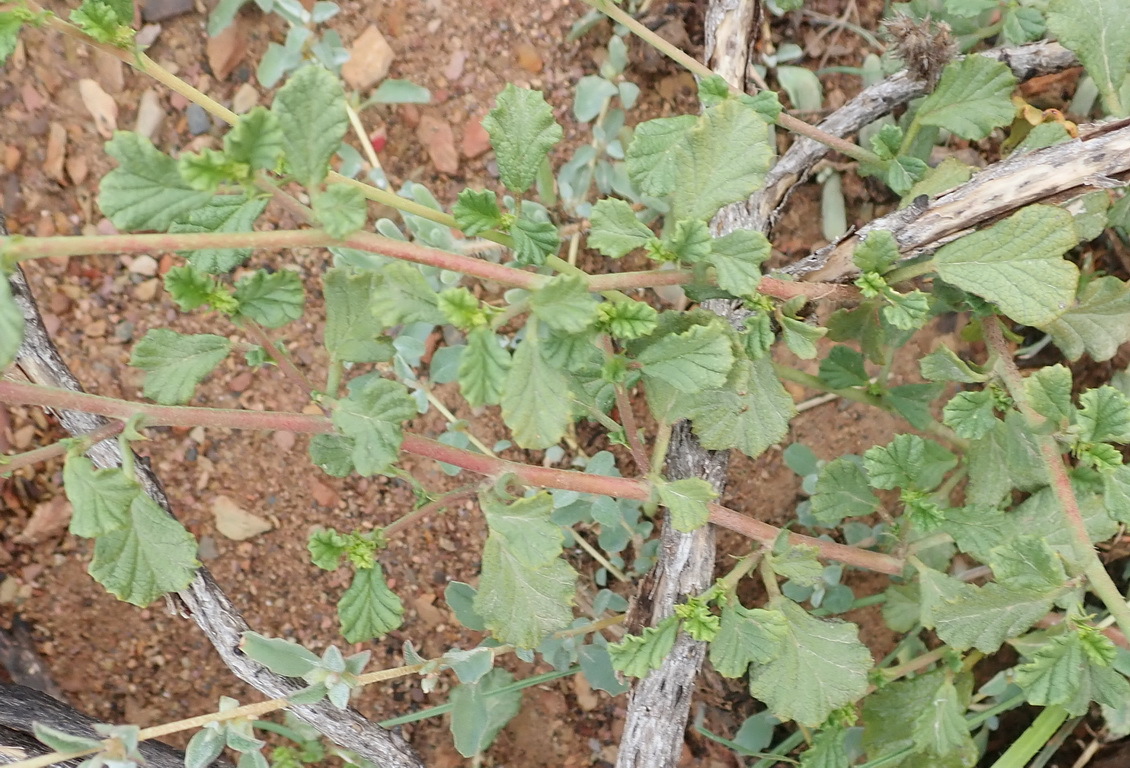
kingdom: Plantae
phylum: Tracheophyta
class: Magnoliopsida
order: Malvales
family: Malvaceae
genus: Hermannia
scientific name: Hermannia alnifolia
